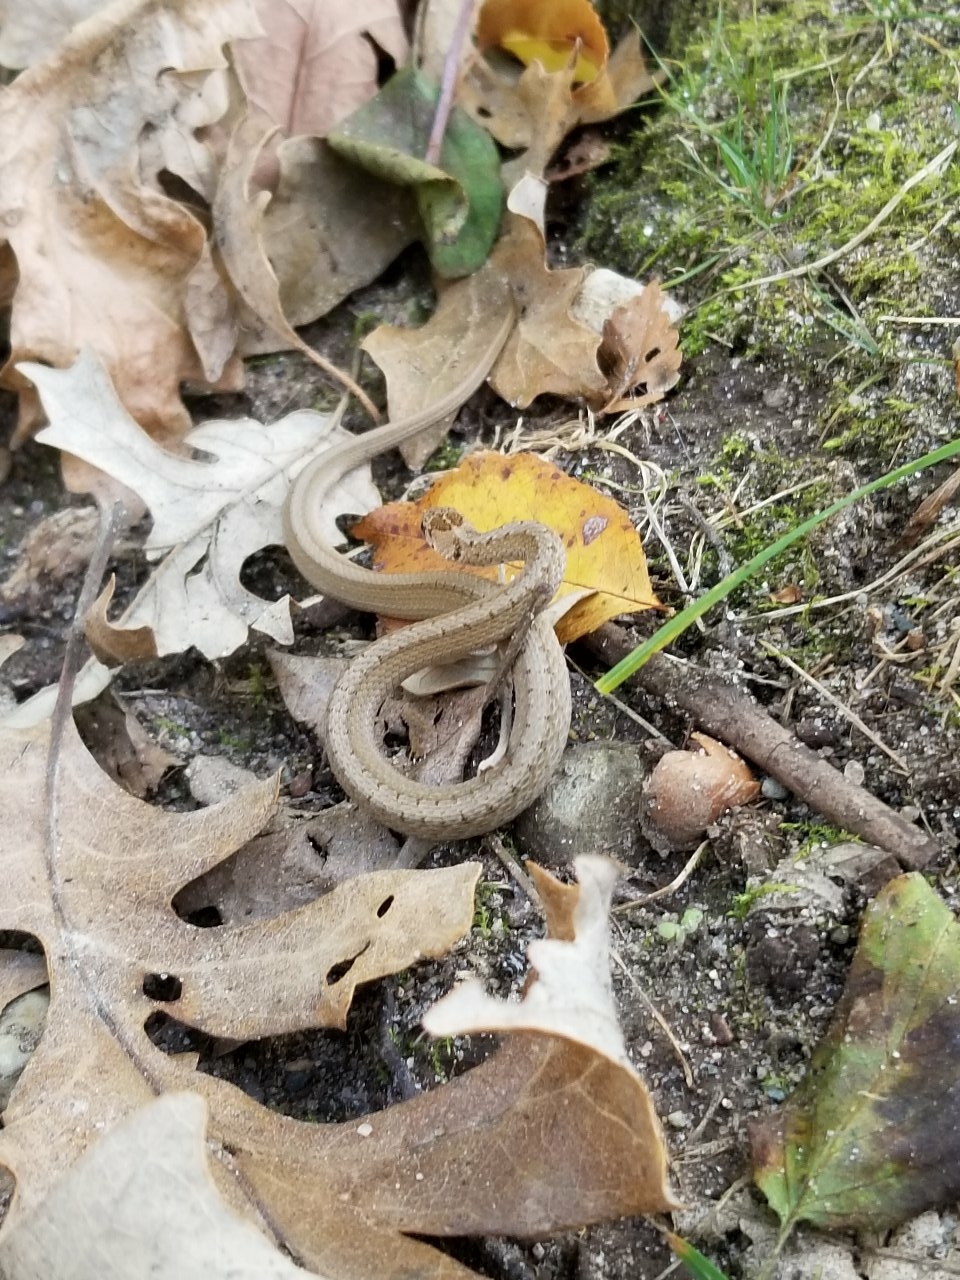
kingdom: Animalia
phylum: Chordata
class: Squamata
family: Colubridae
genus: Storeria
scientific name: Storeria dekayi
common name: (dekay’s) brown snake
